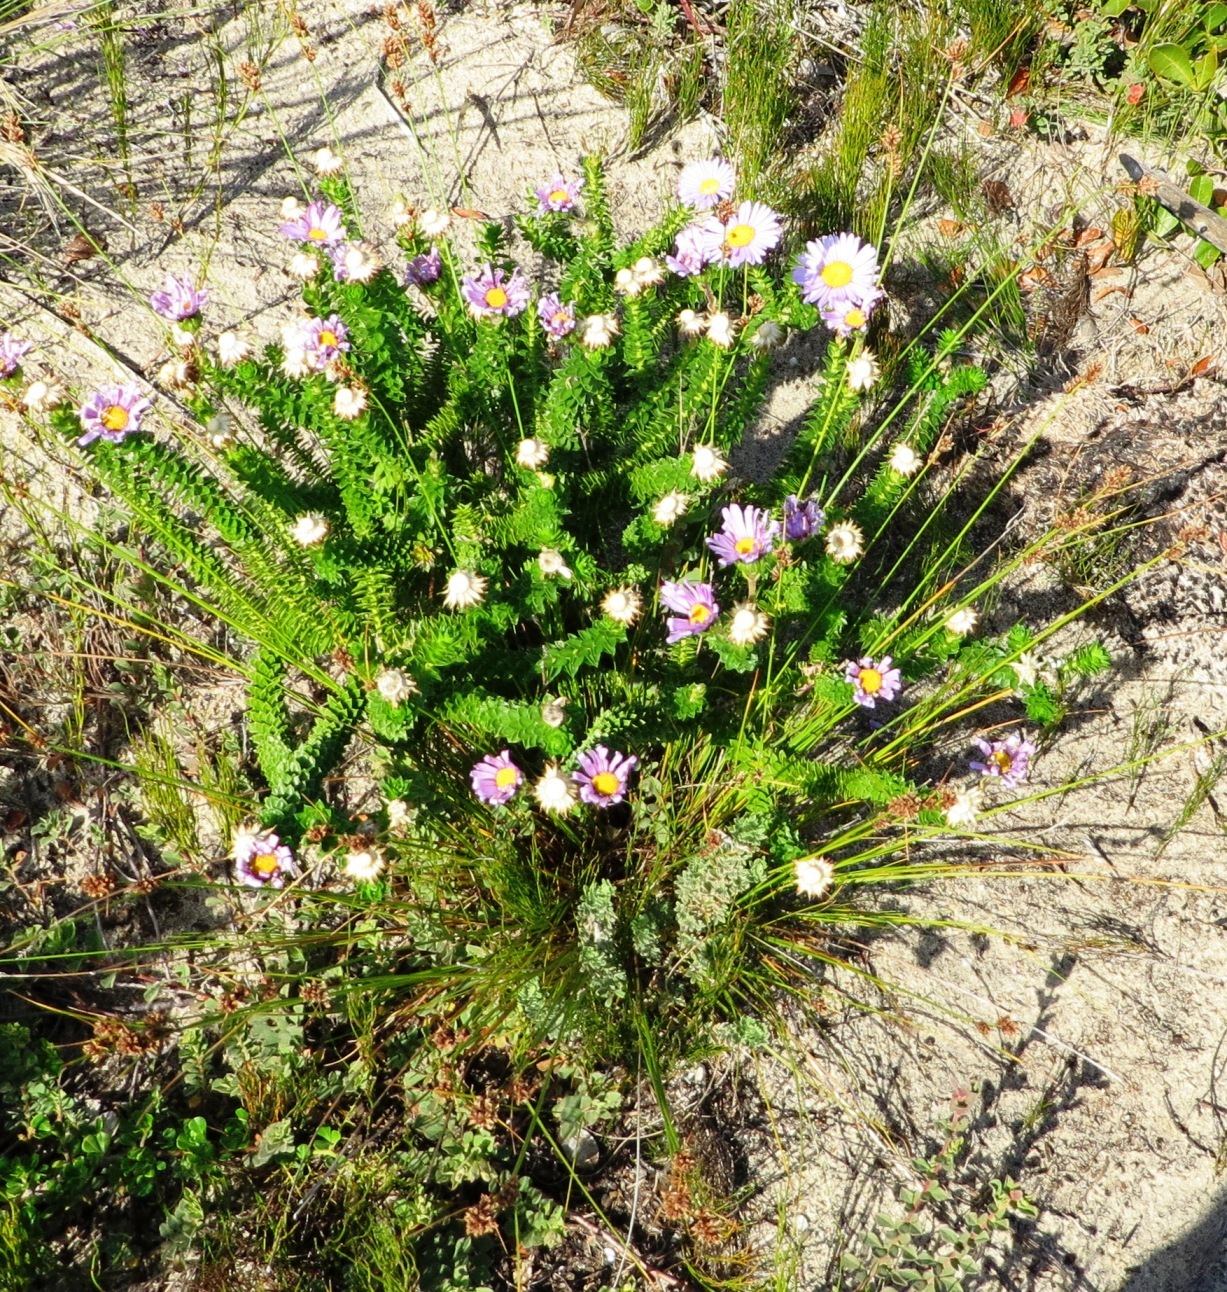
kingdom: Plantae
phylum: Tracheophyta
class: Magnoliopsida
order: Asterales
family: Asteraceae
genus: Felicia
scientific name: Felicia echinata
